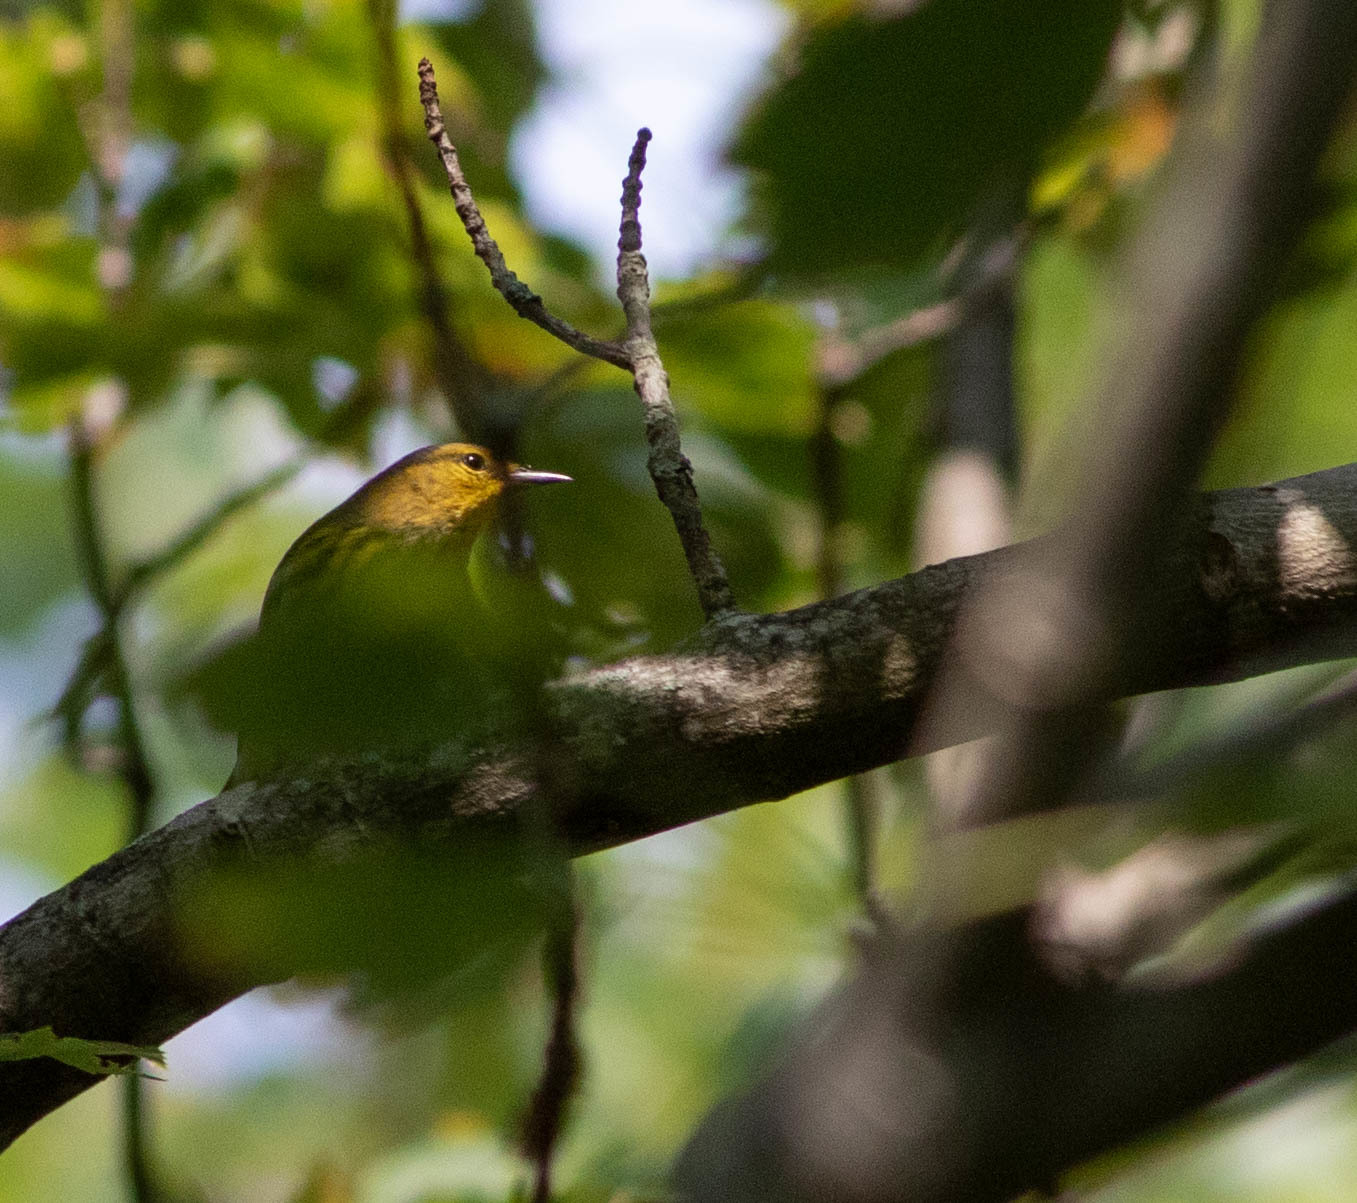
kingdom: Animalia
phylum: Chordata
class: Aves
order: Passeriformes
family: Parulidae
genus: Setophaga
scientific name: Setophaga tigrina
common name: Cape may warbler
